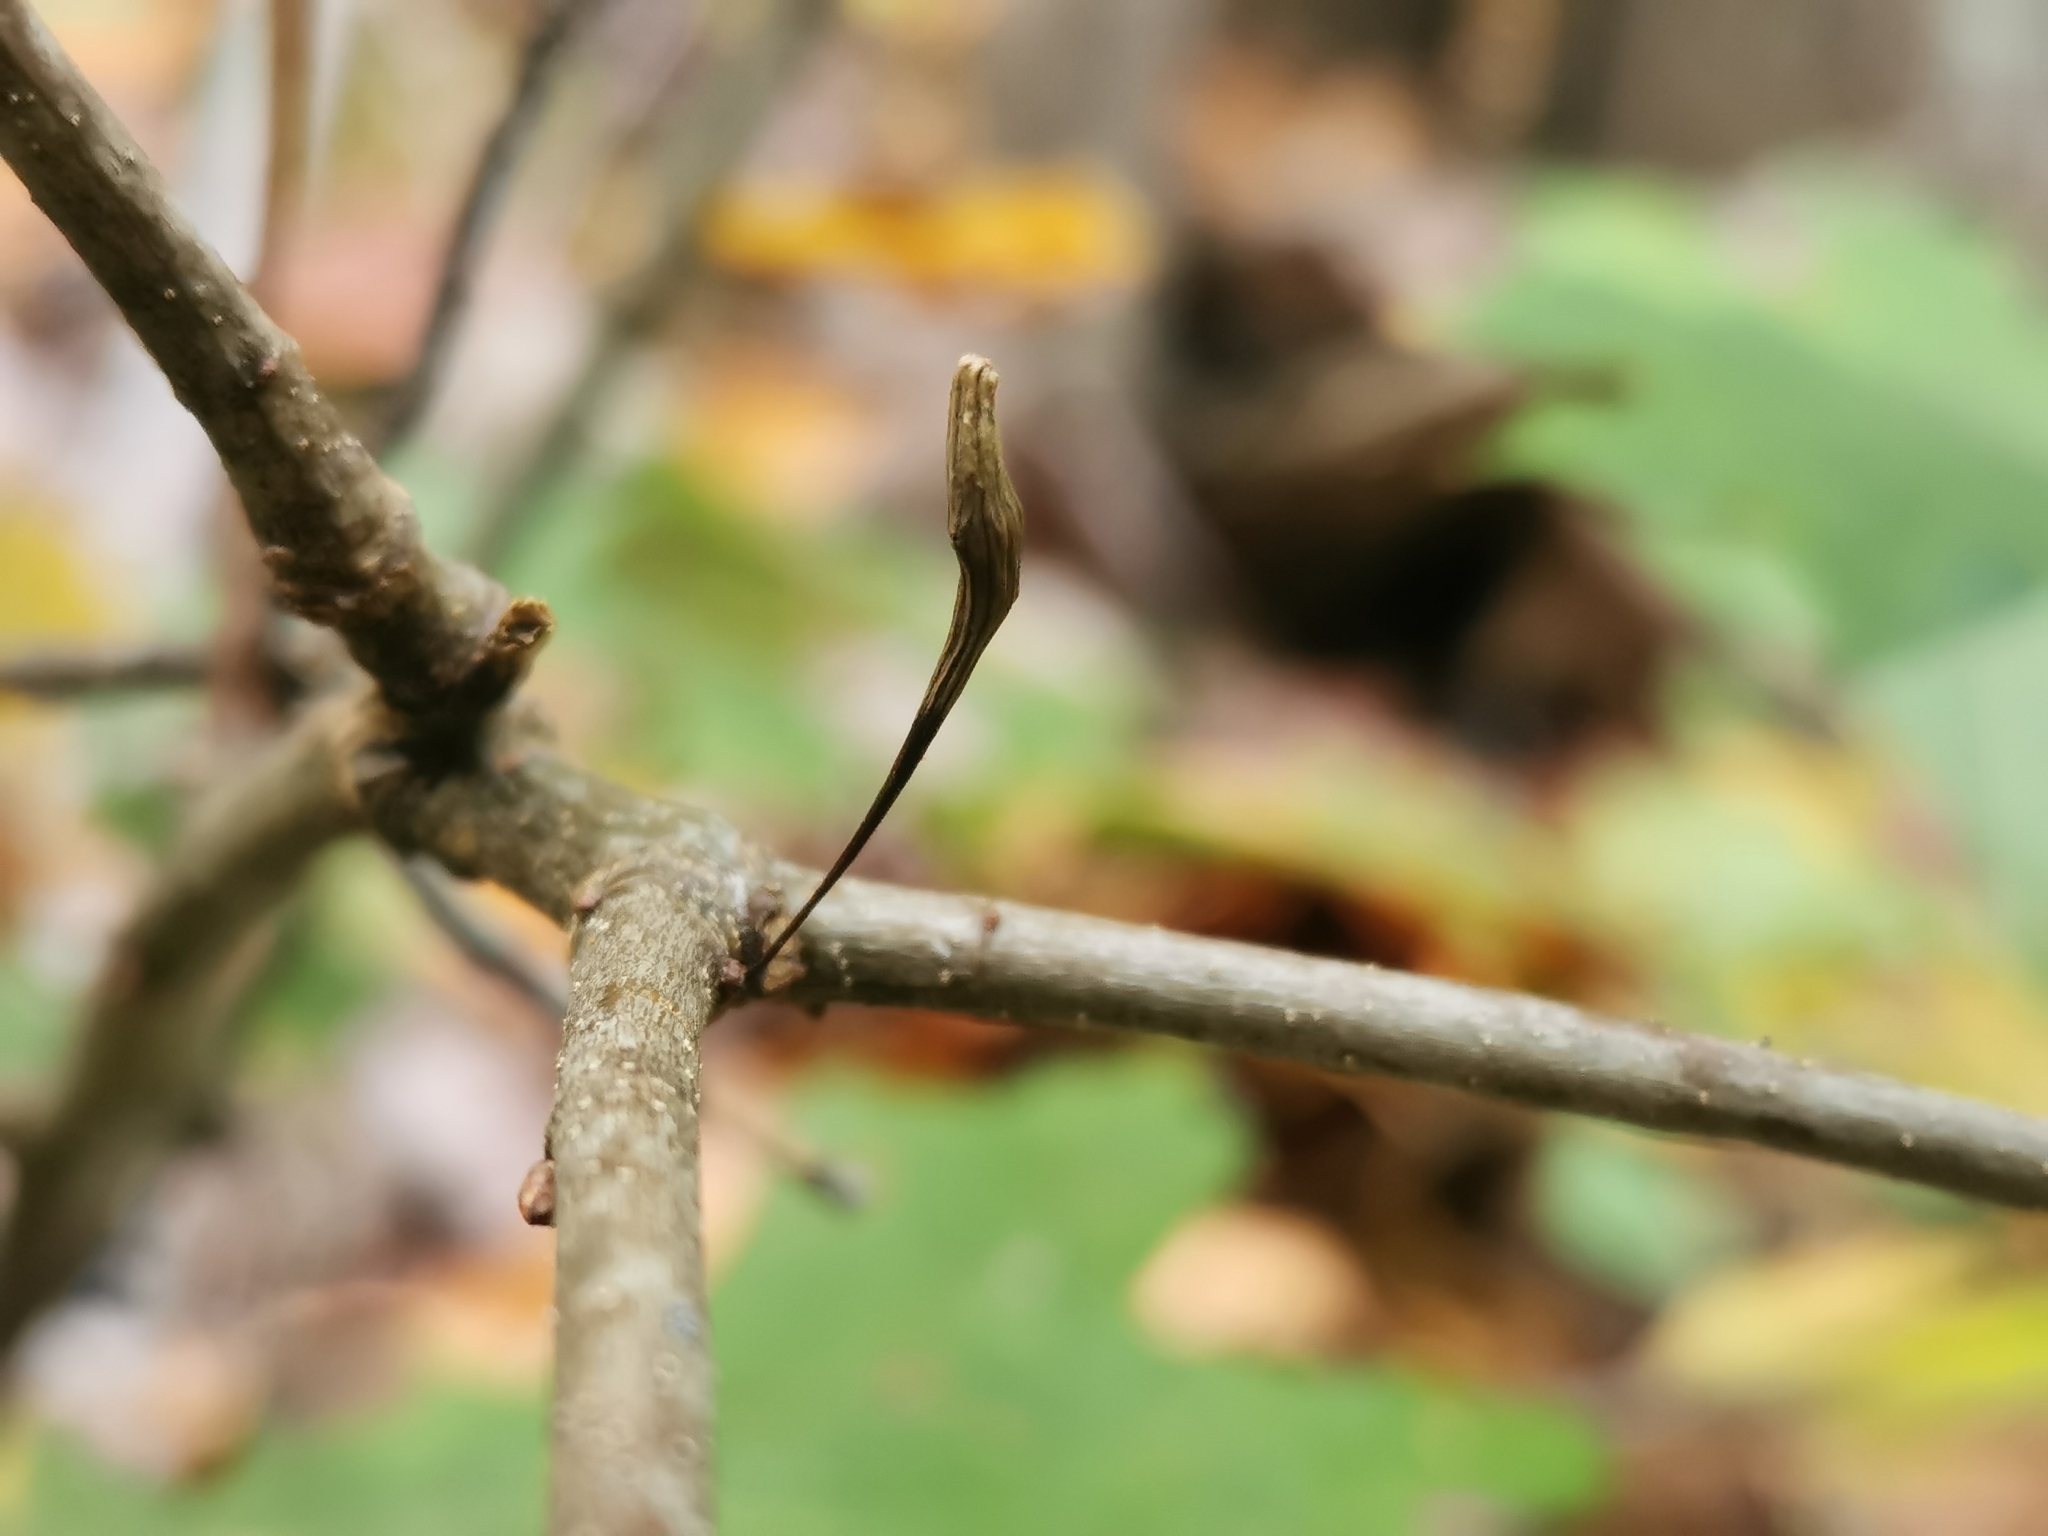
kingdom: Animalia
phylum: Arthropoda
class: Insecta
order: Hymenoptera
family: Cynipidae
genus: Callirhytis
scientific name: Callirhytis
